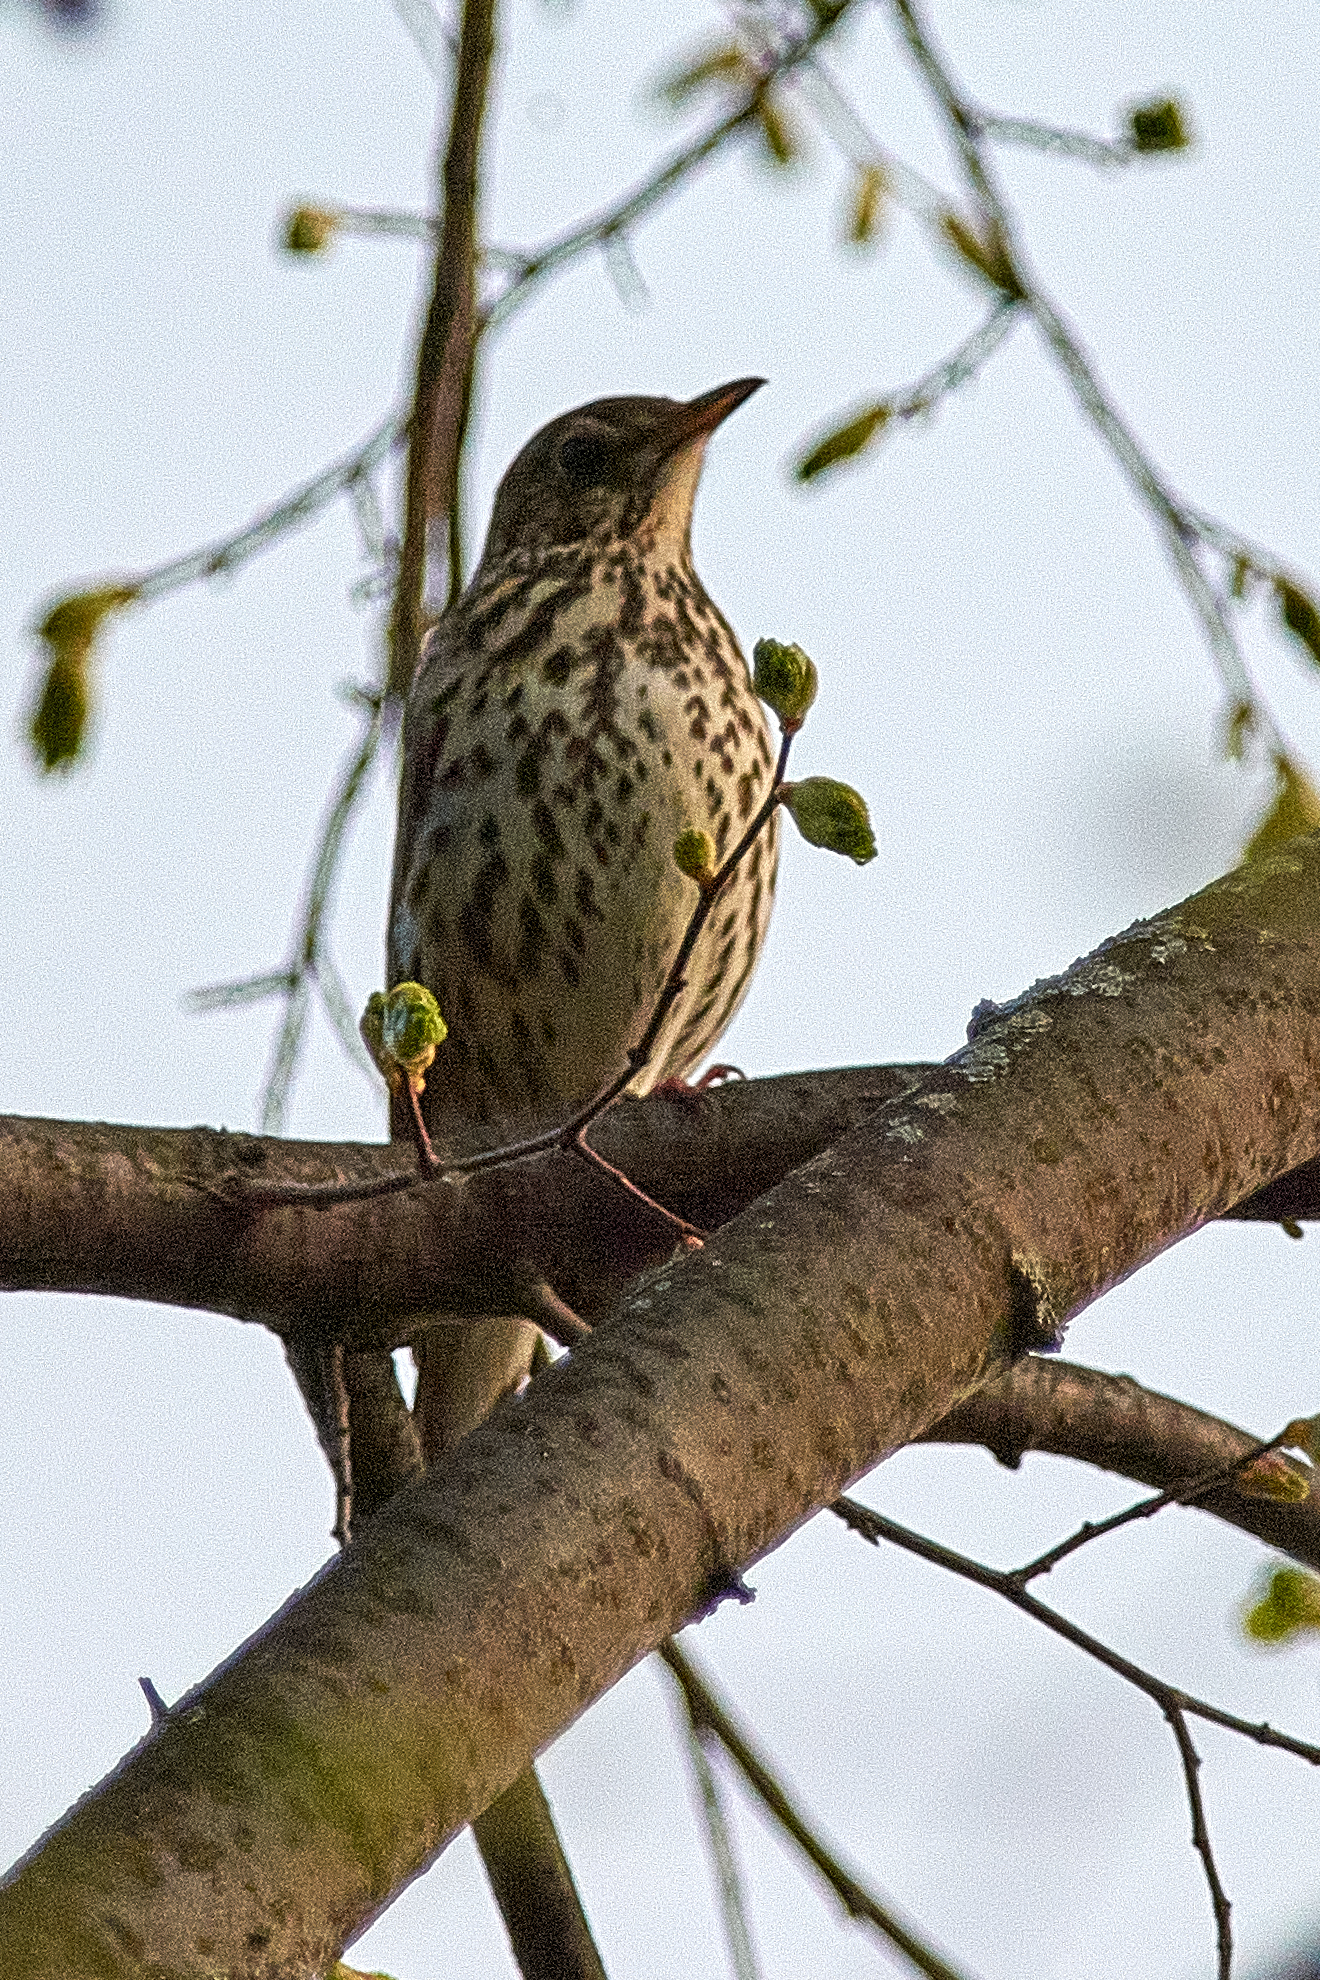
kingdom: Animalia
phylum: Chordata
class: Aves
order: Passeriformes
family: Turdidae
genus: Turdus
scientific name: Turdus philomelos
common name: Song thrush
